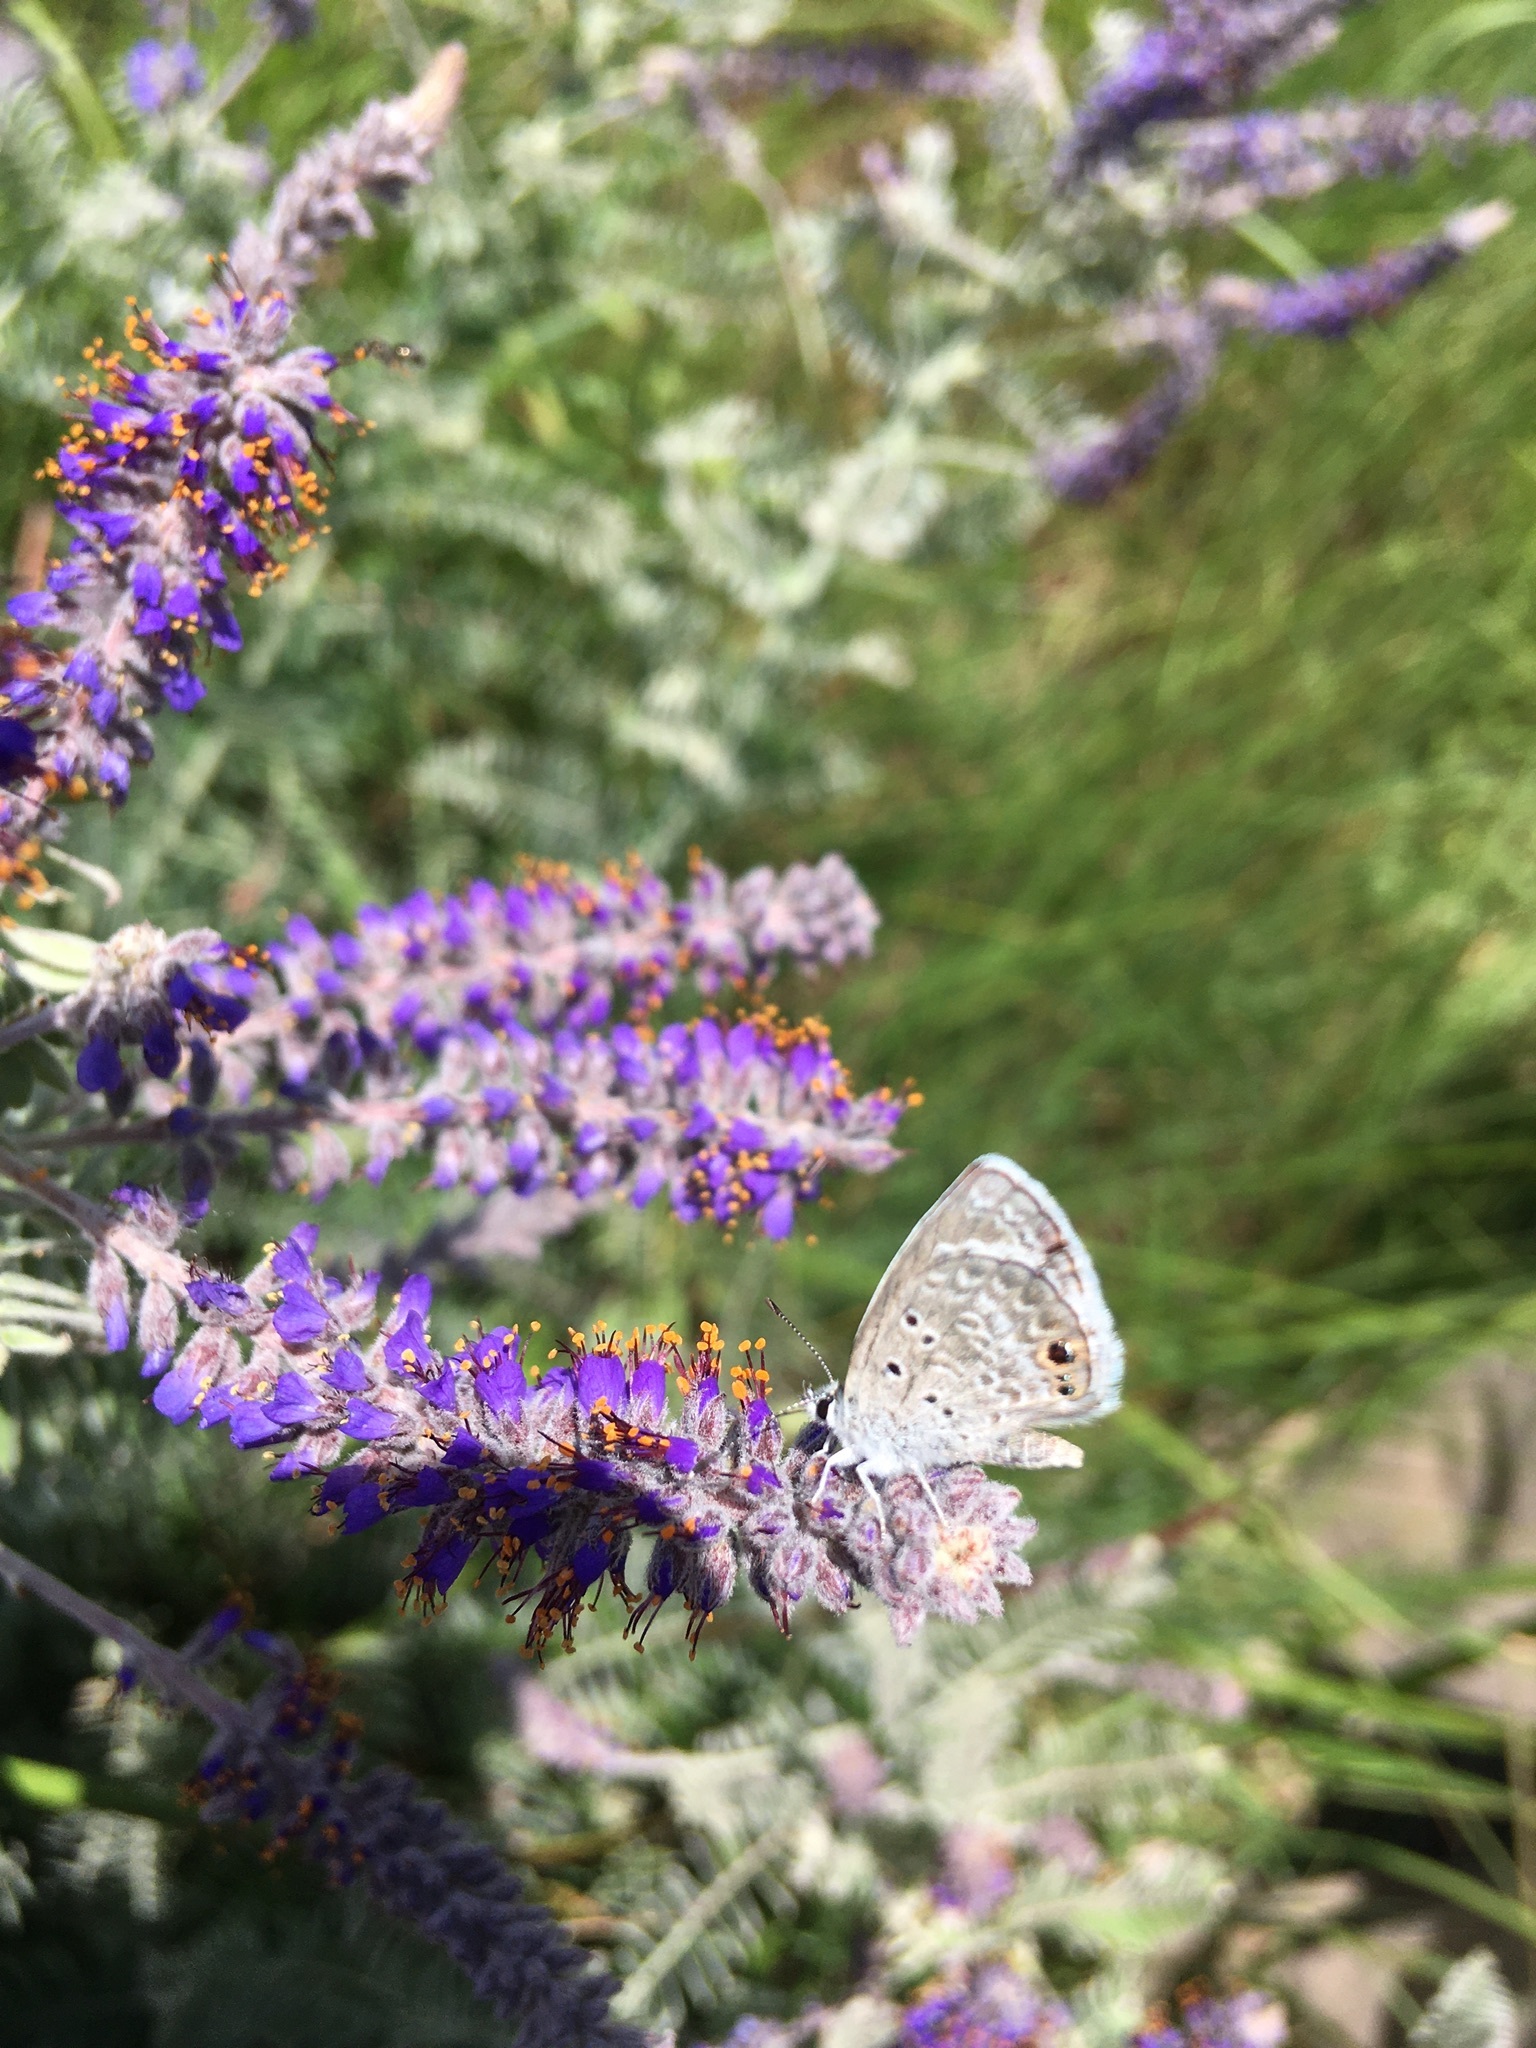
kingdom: Animalia
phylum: Arthropoda
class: Insecta
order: Lepidoptera
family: Lycaenidae
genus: Echinargus
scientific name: Echinargus isola
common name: Reakirt's blue
